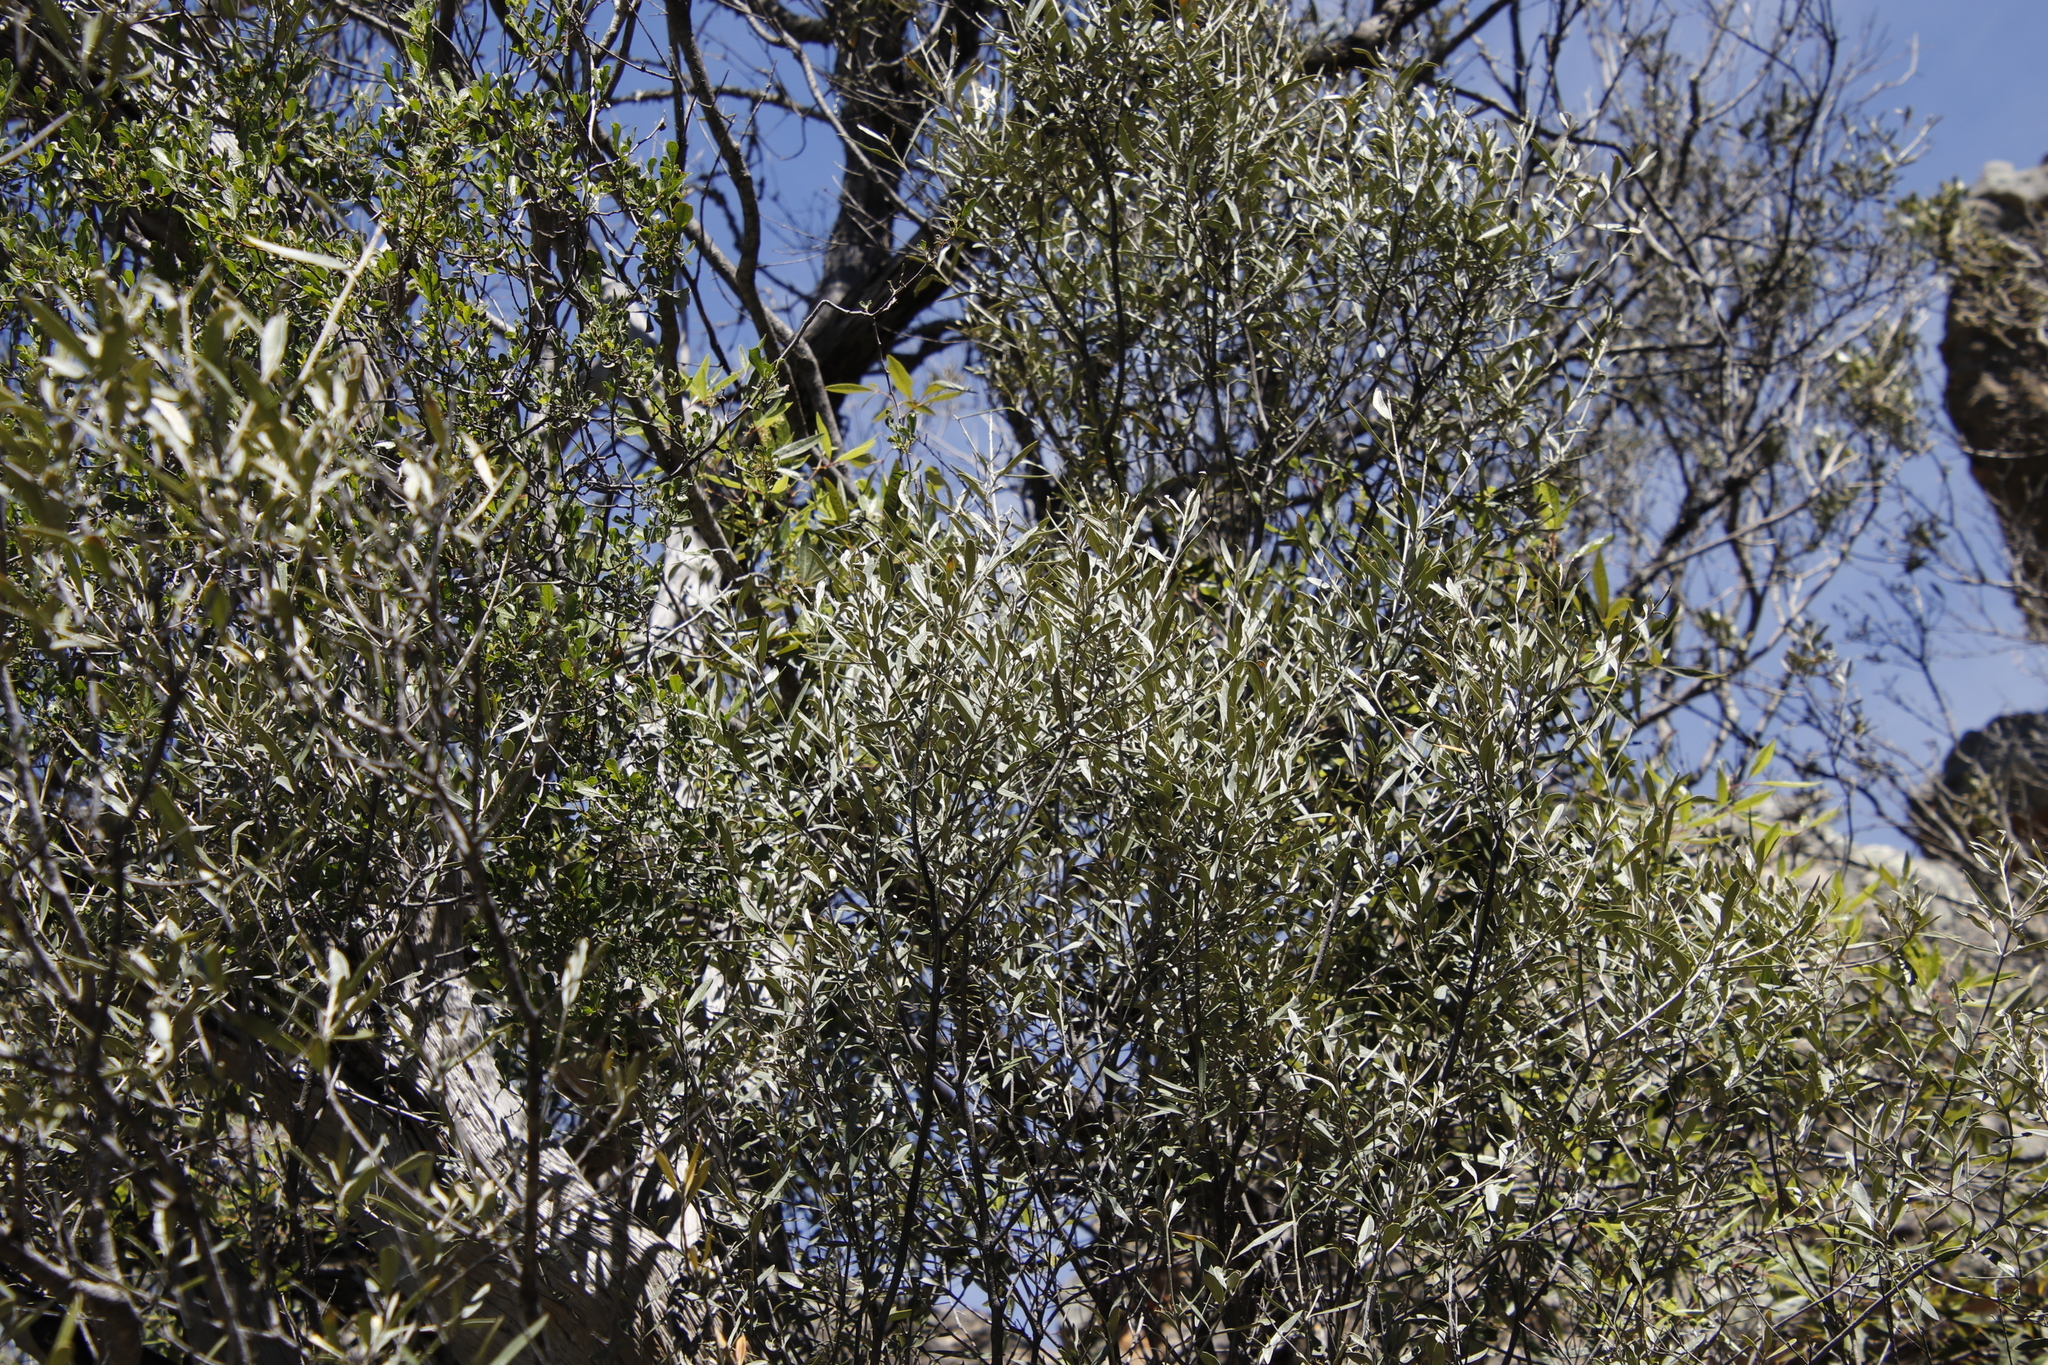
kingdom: Plantae
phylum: Tracheophyta
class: Magnoliopsida
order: Lamiales
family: Oleaceae
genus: Olea
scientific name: Olea europaea
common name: Olive
